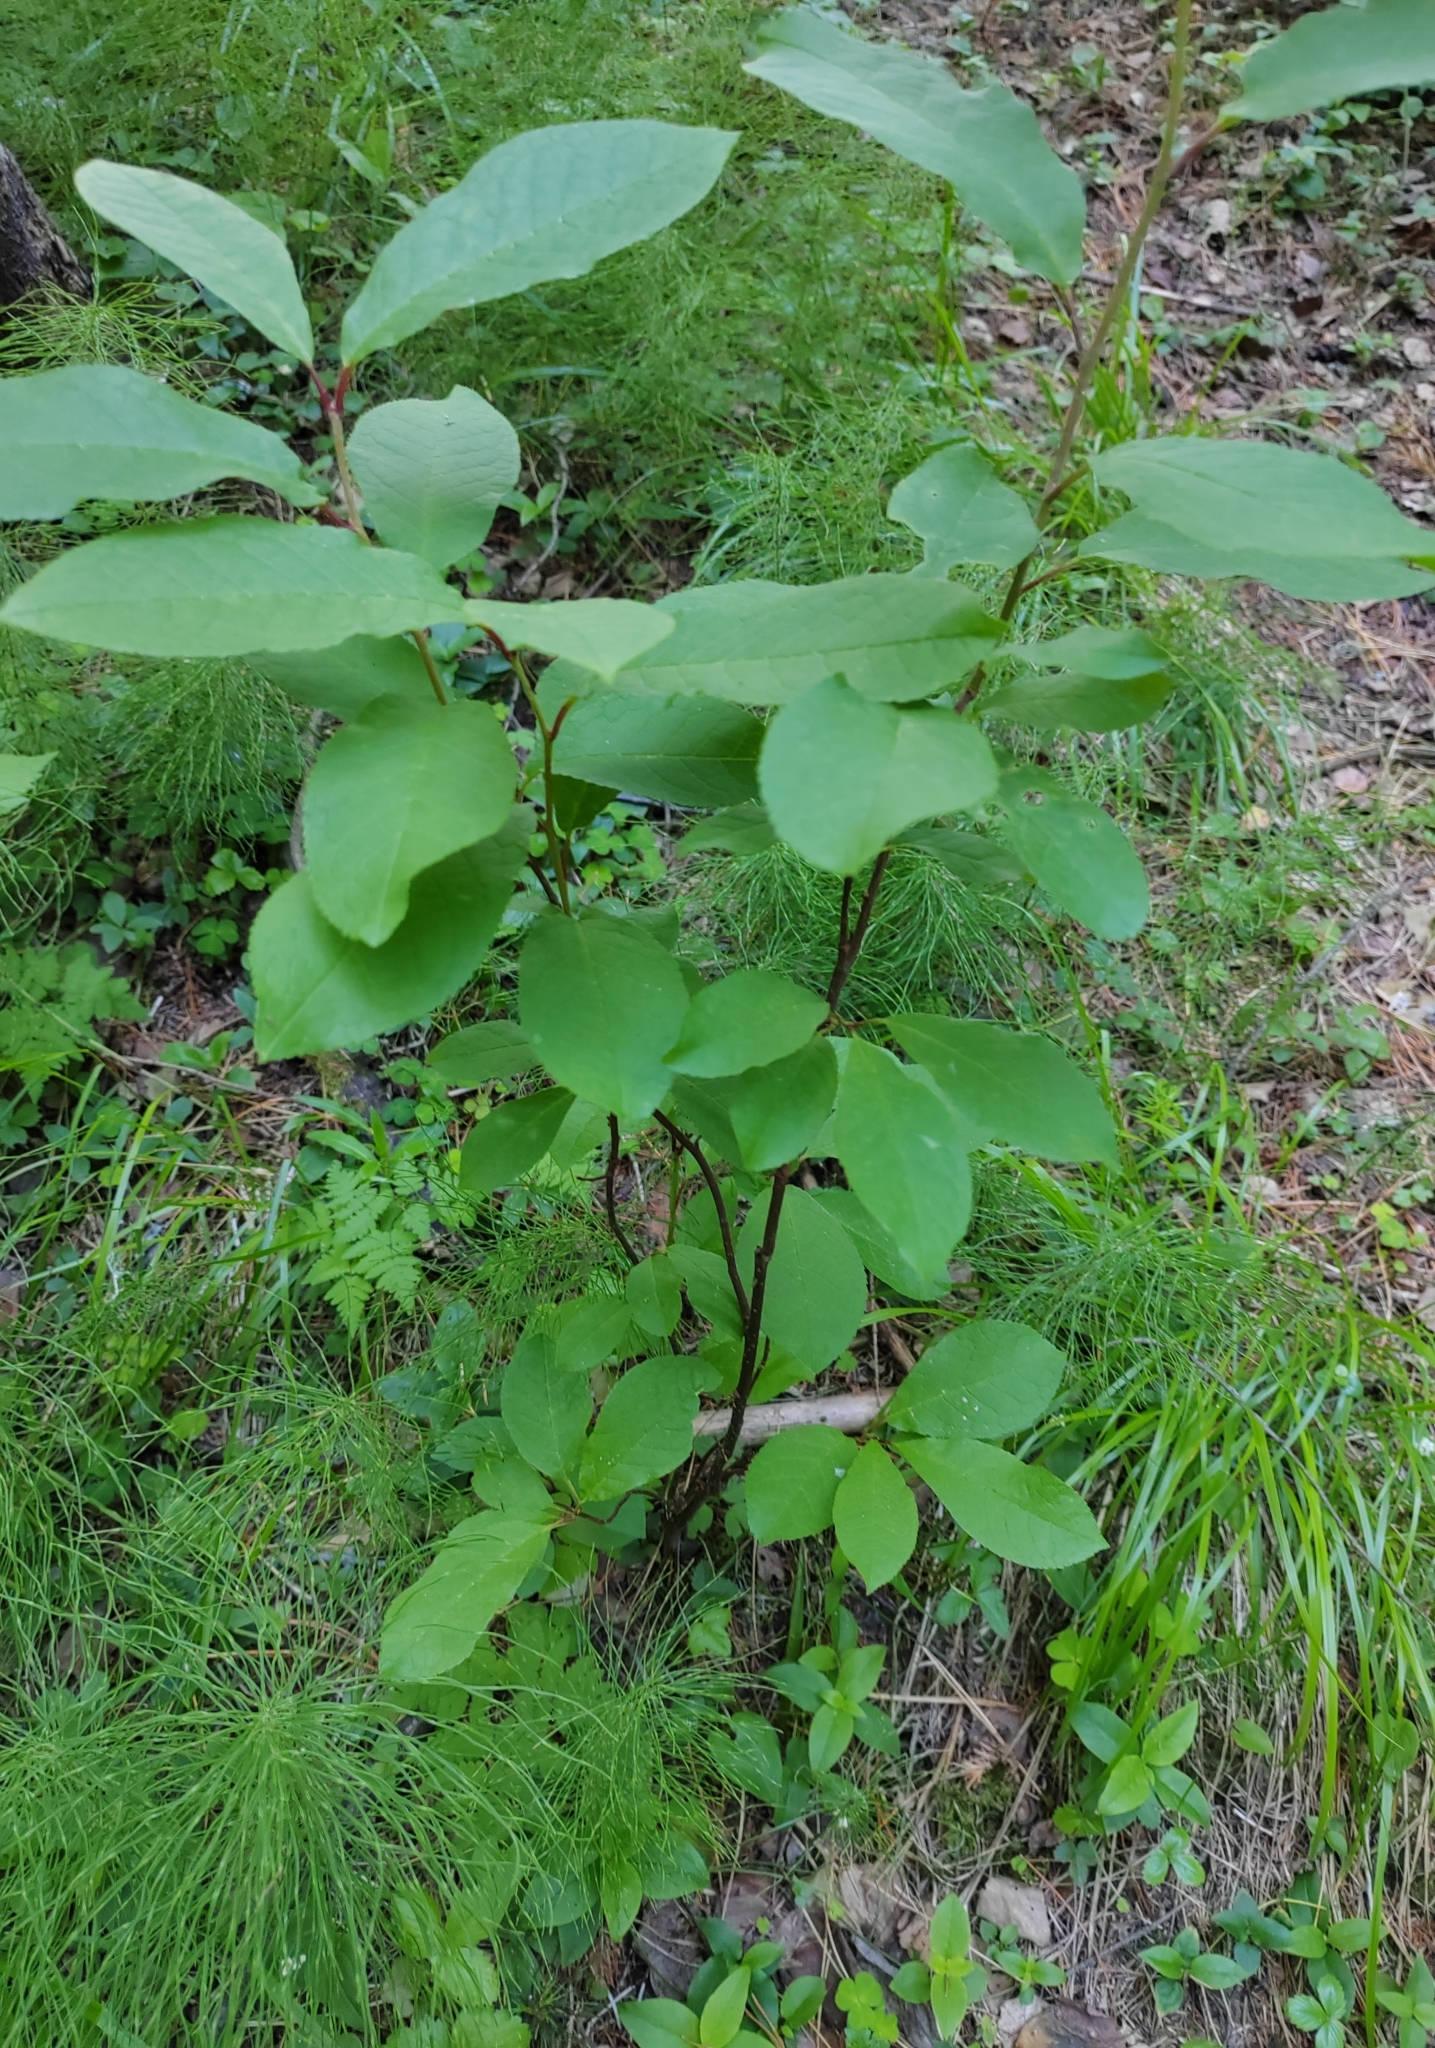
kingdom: Plantae
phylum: Tracheophyta
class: Magnoliopsida
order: Rosales
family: Rosaceae
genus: Prunus
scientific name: Prunus padus
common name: Bird cherry
